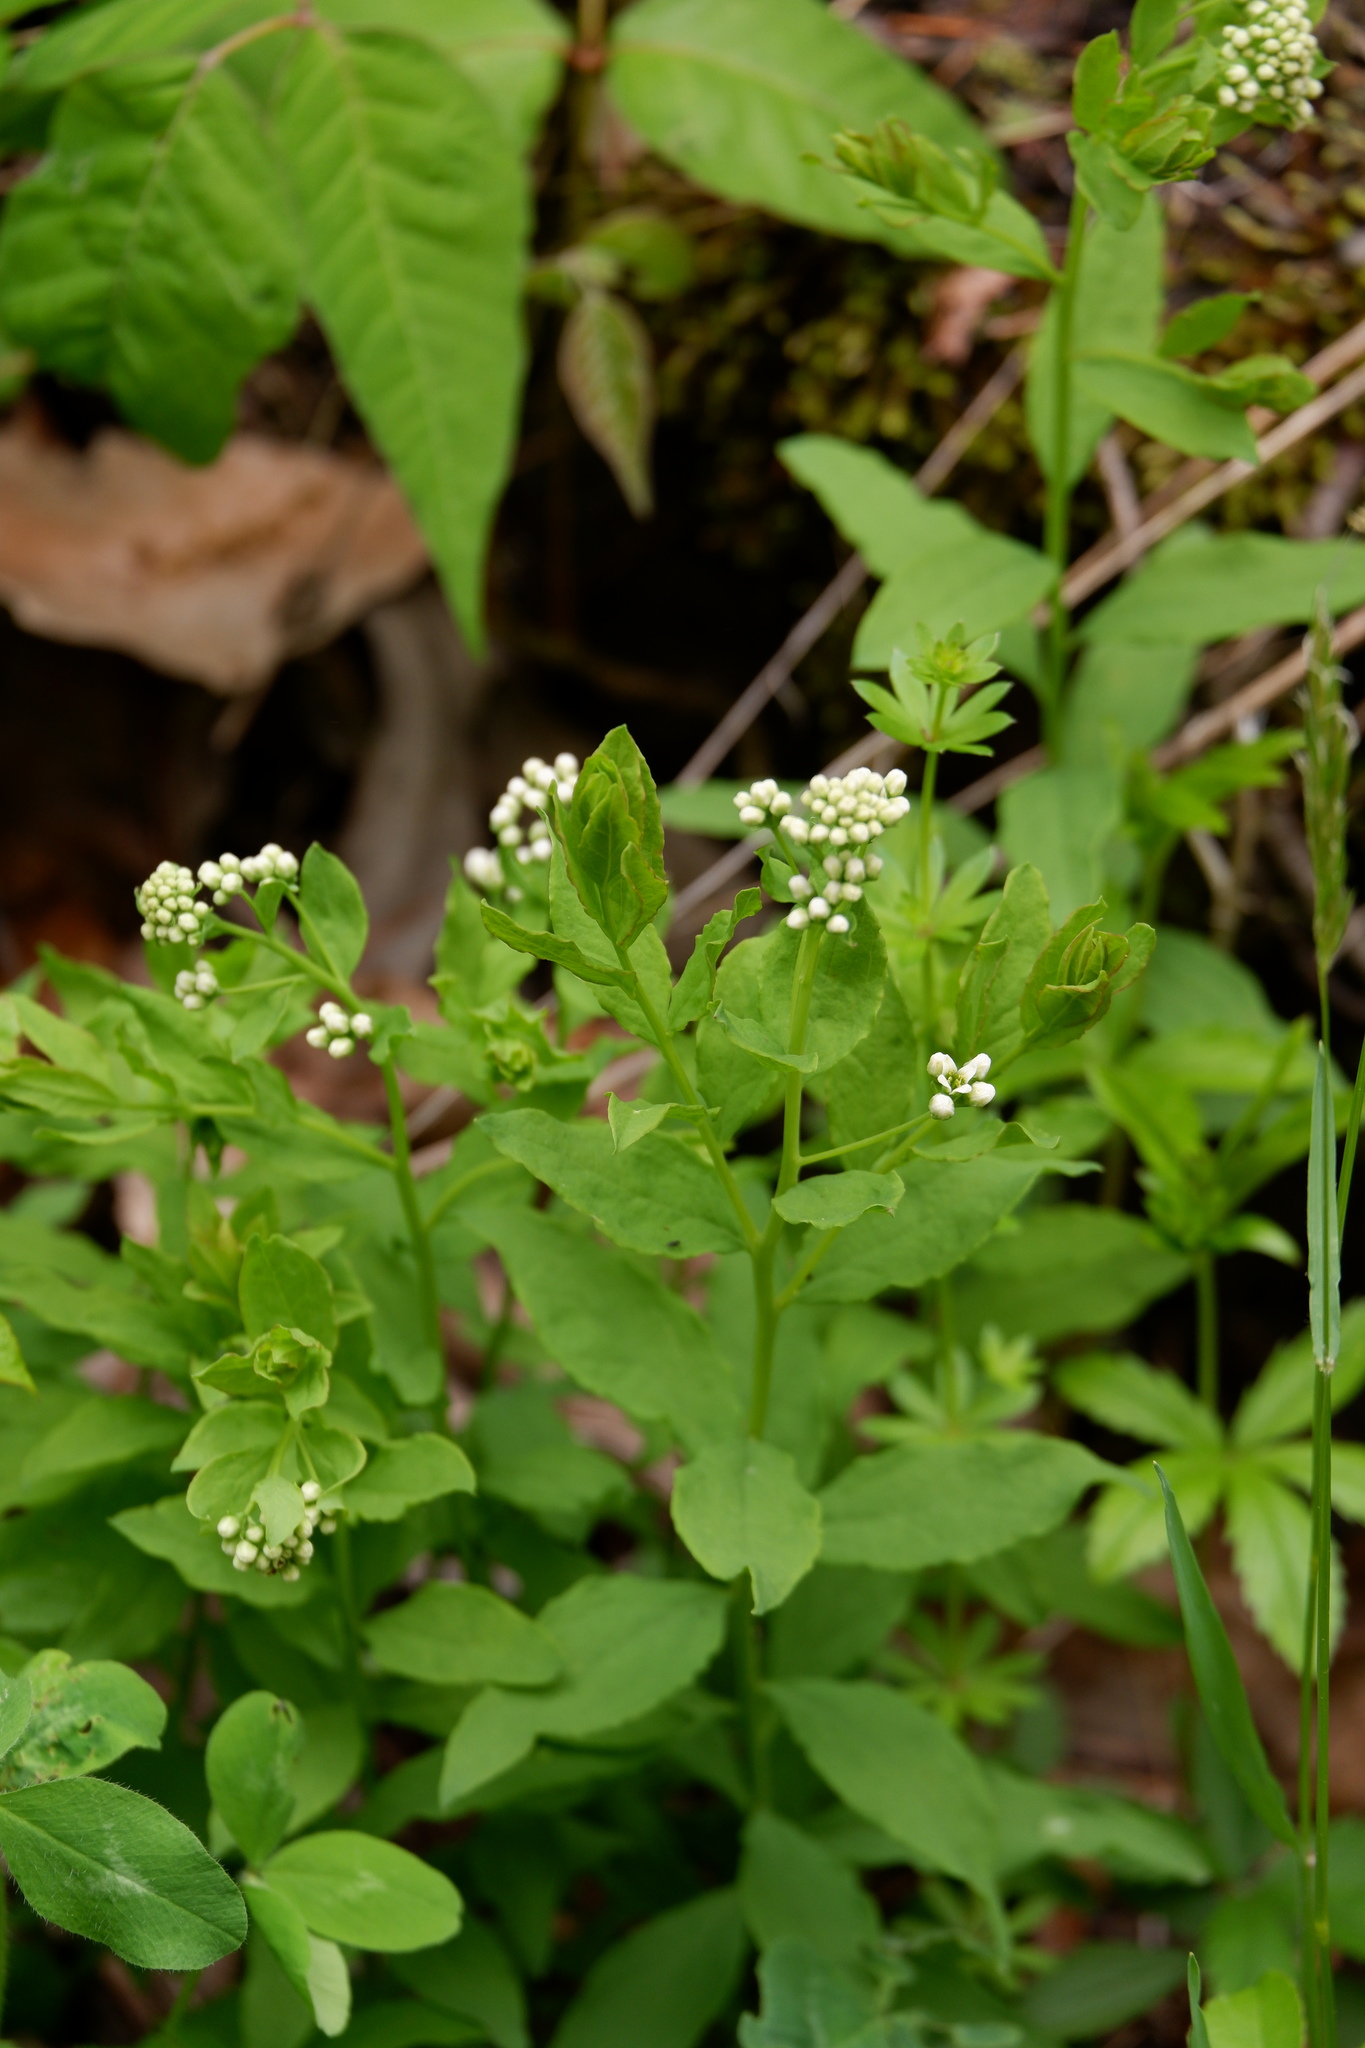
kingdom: Plantae
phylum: Tracheophyta
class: Magnoliopsida
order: Santalales
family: Comandraceae
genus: Comandra
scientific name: Comandra umbellata
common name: Bastard toadflax
